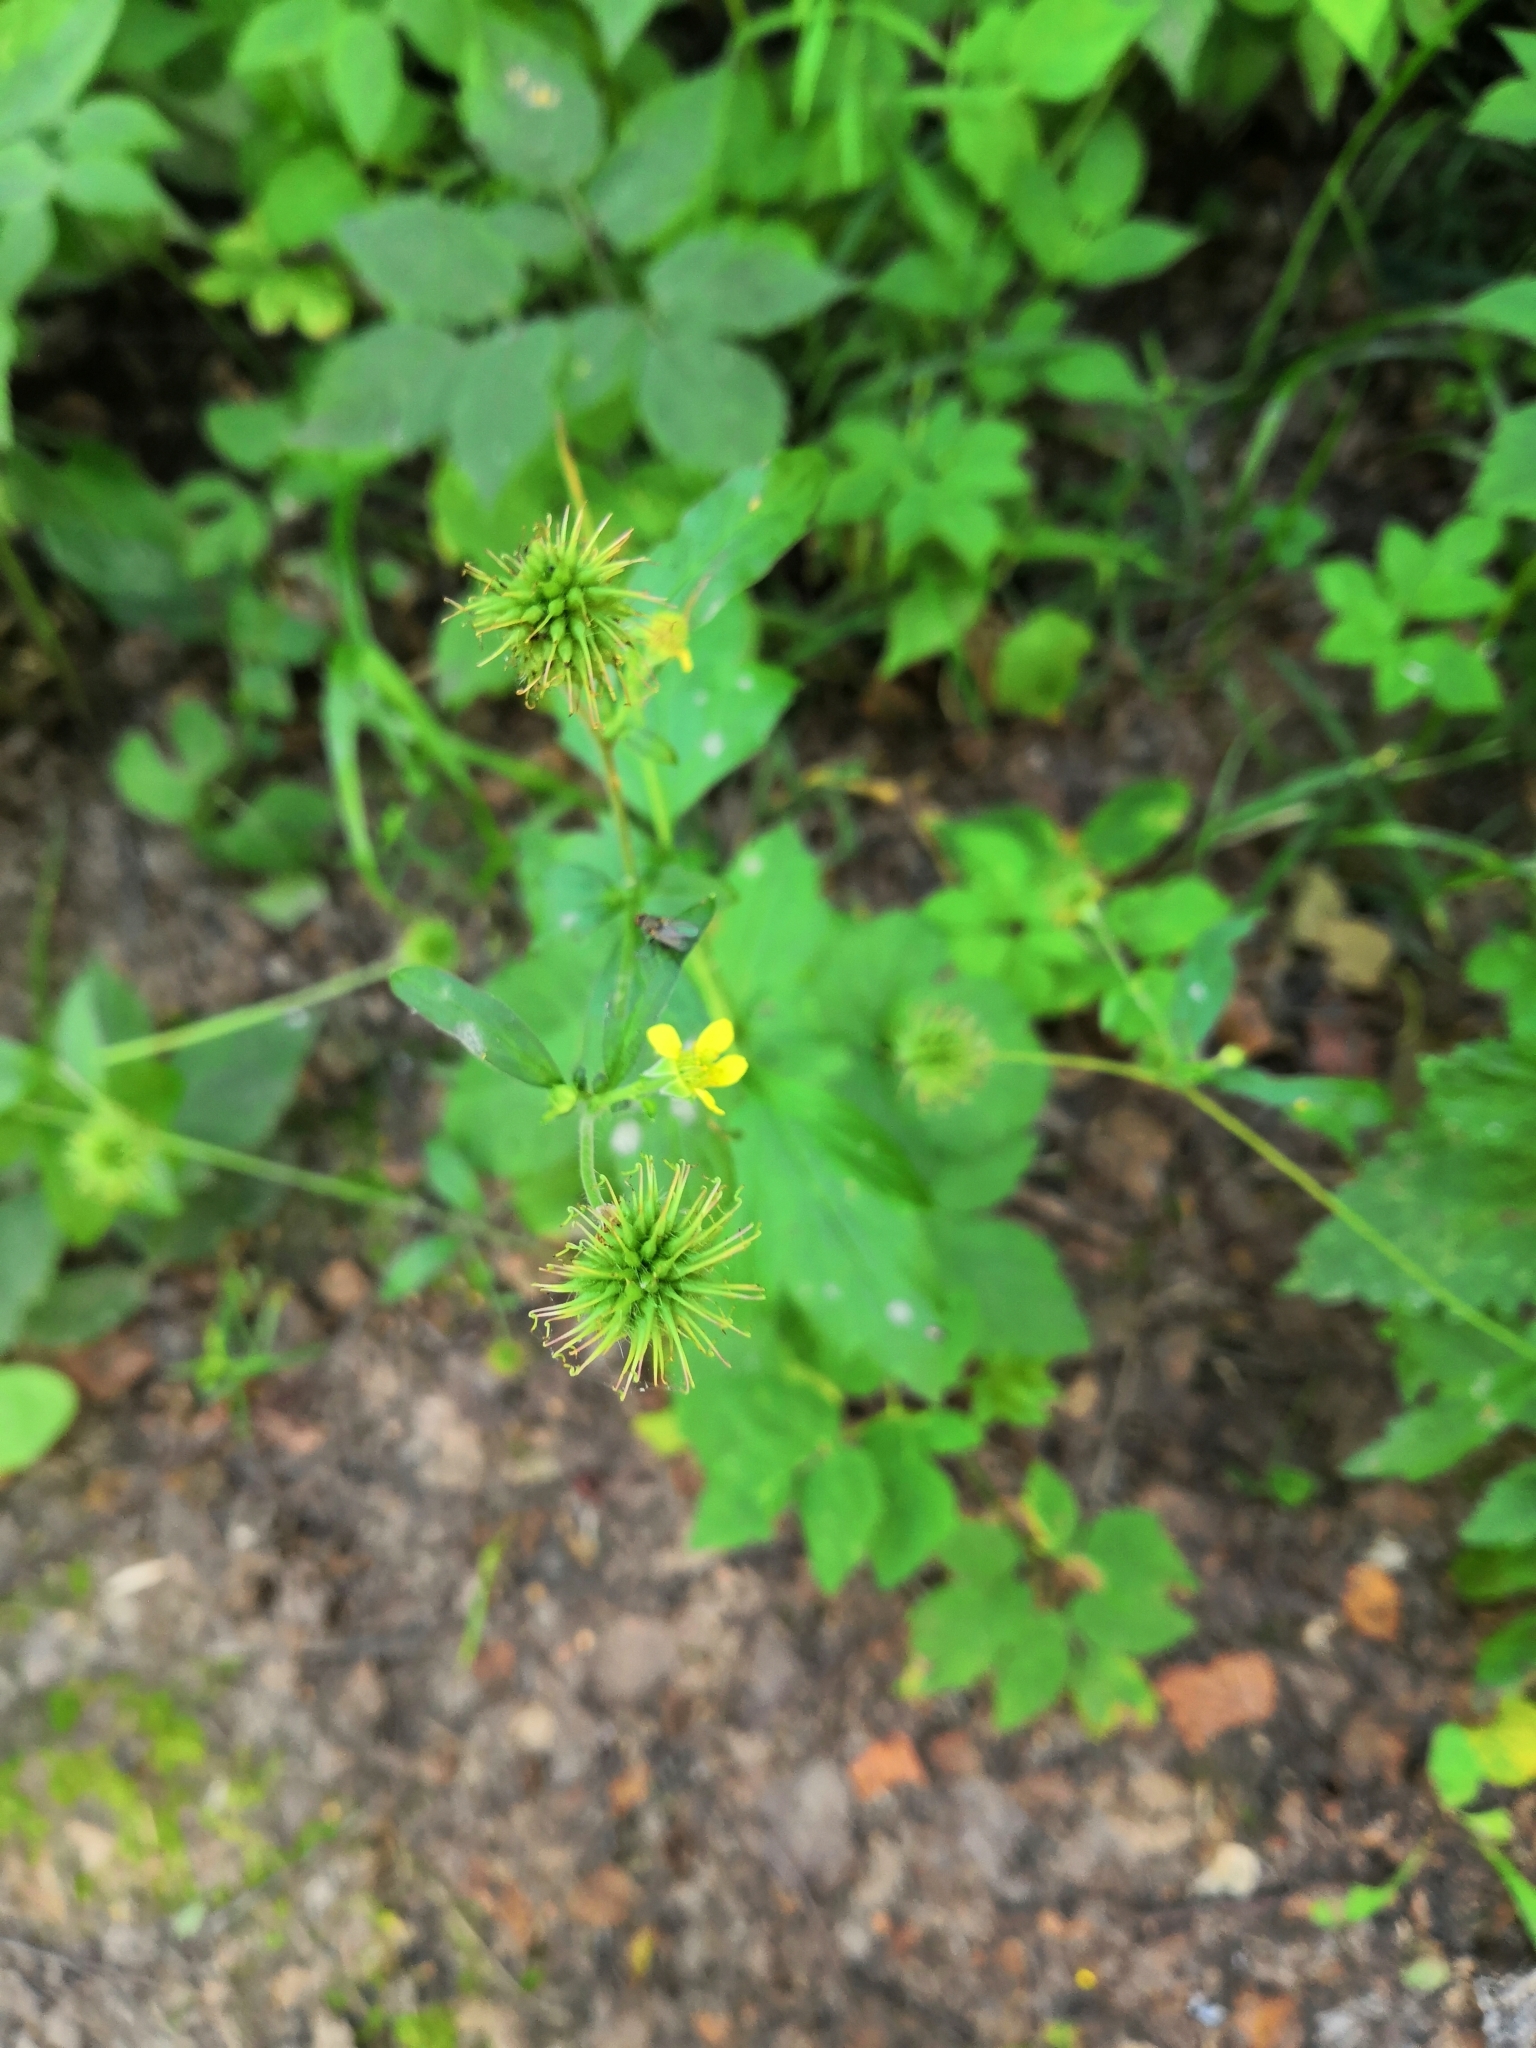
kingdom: Plantae
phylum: Tracheophyta
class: Magnoliopsida
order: Rosales
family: Rosaceae
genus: Geum
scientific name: Geum urbanum
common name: Wood avens
